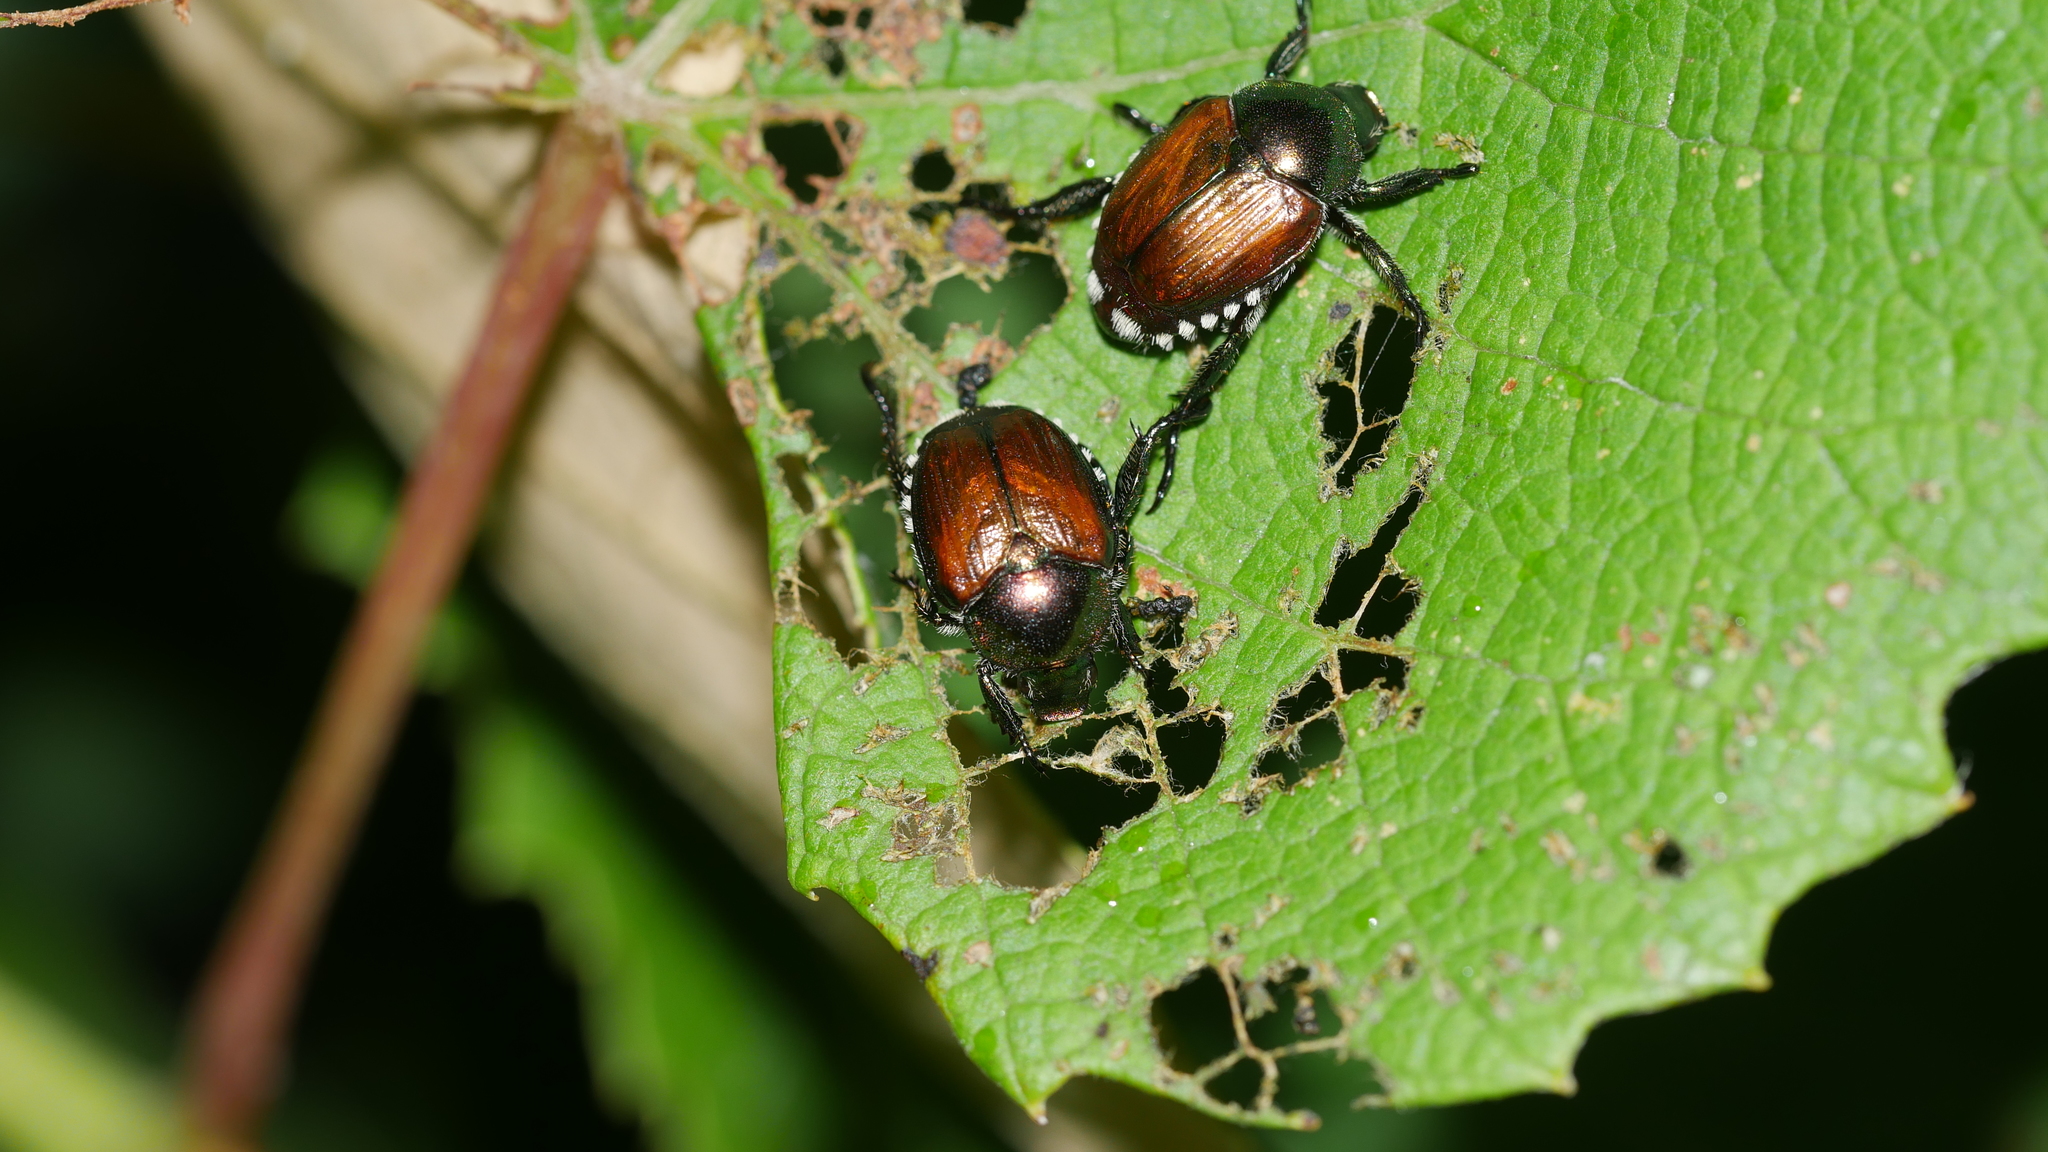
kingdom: Animalia
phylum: Arthropoda
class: Insecta
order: Coleoptera
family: Scarabaeidae
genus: Popillia
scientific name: Popillia japonica
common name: Japanese beetle
